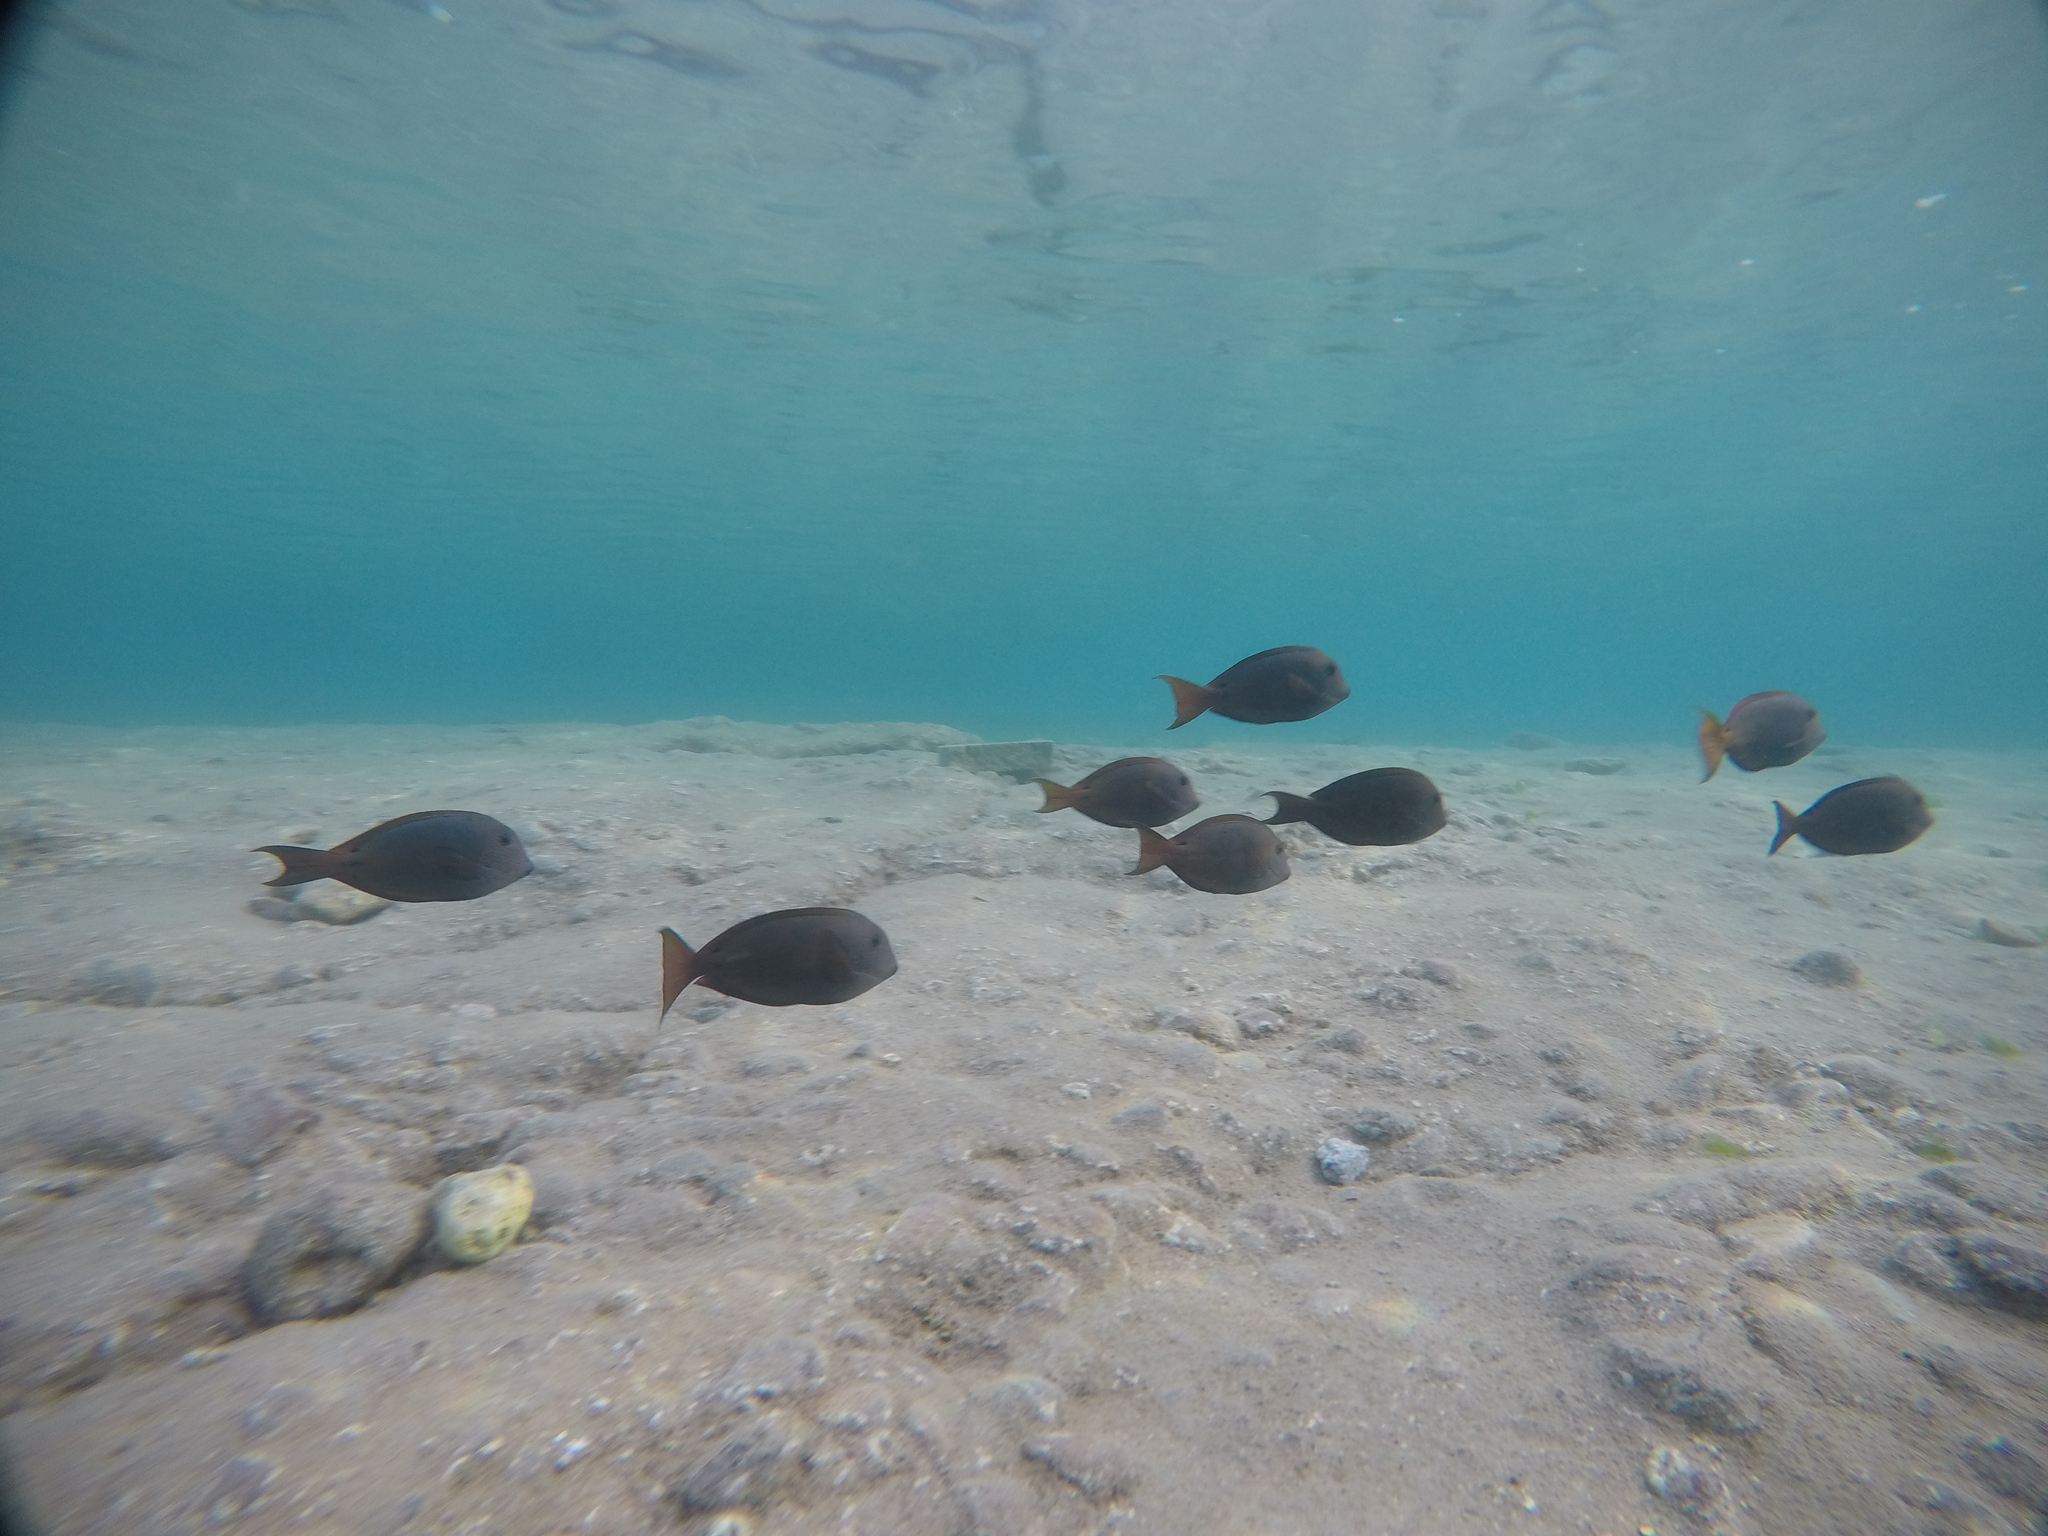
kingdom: Animalia
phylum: Chordata
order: Perciformes
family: Acanthuridae
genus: Acanthurus
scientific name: Acanthurus nigrofuscus
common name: Blackspot surgeonfish
